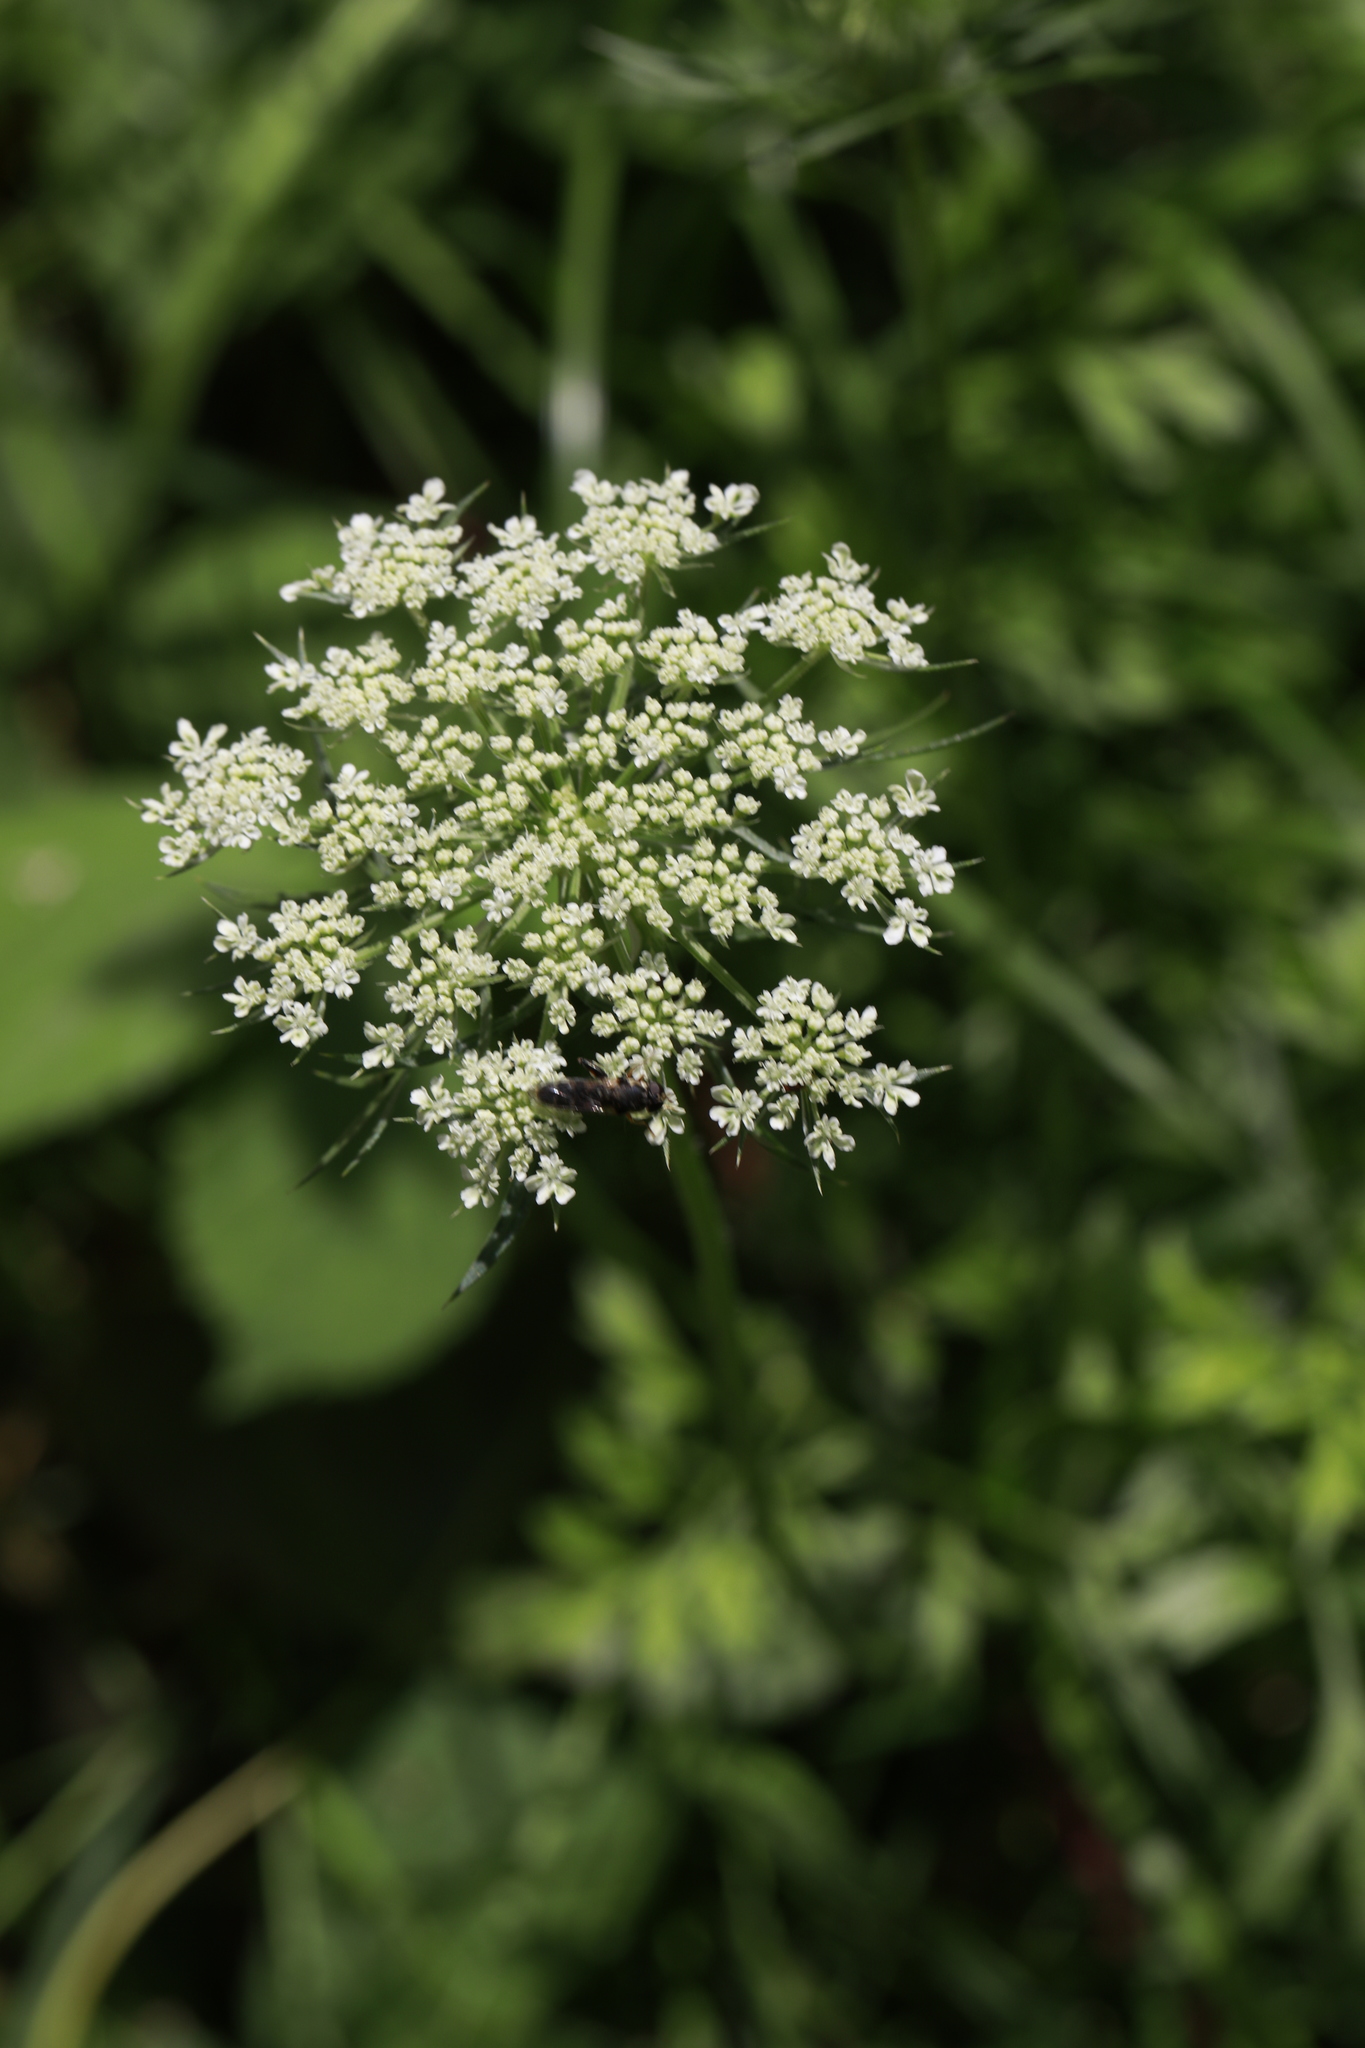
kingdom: Plantae
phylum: Tracheophyta
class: Magnoliopsida
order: Apiales
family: Apiaceae
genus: Daucus
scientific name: Daucus carota
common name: Wild carrot
